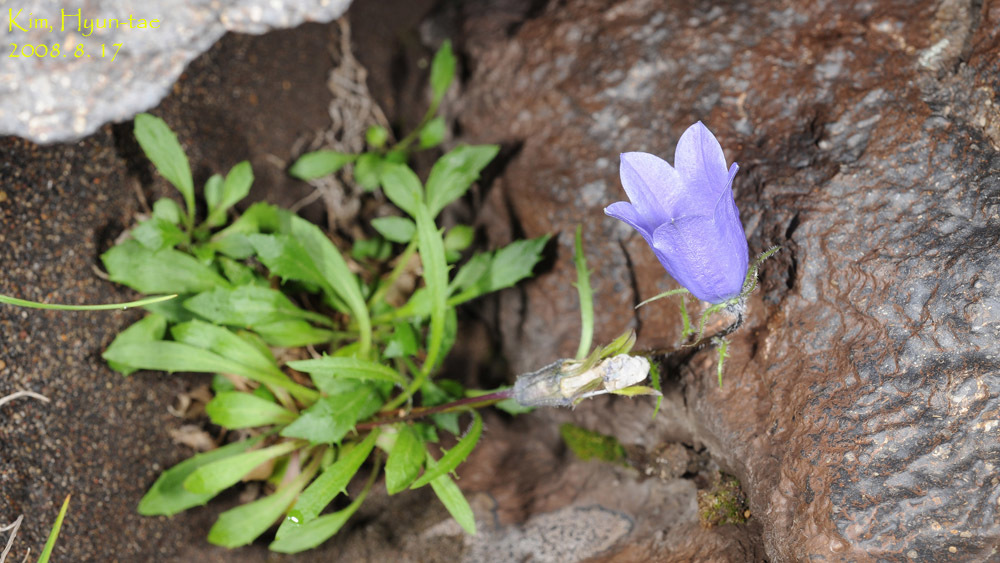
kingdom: Plantae
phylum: Tracheophyta
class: Magnoliopsida
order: Asterales
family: Campanulaceae
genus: Campanula
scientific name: Campanula lasiocarpa
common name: Mountain harebell
